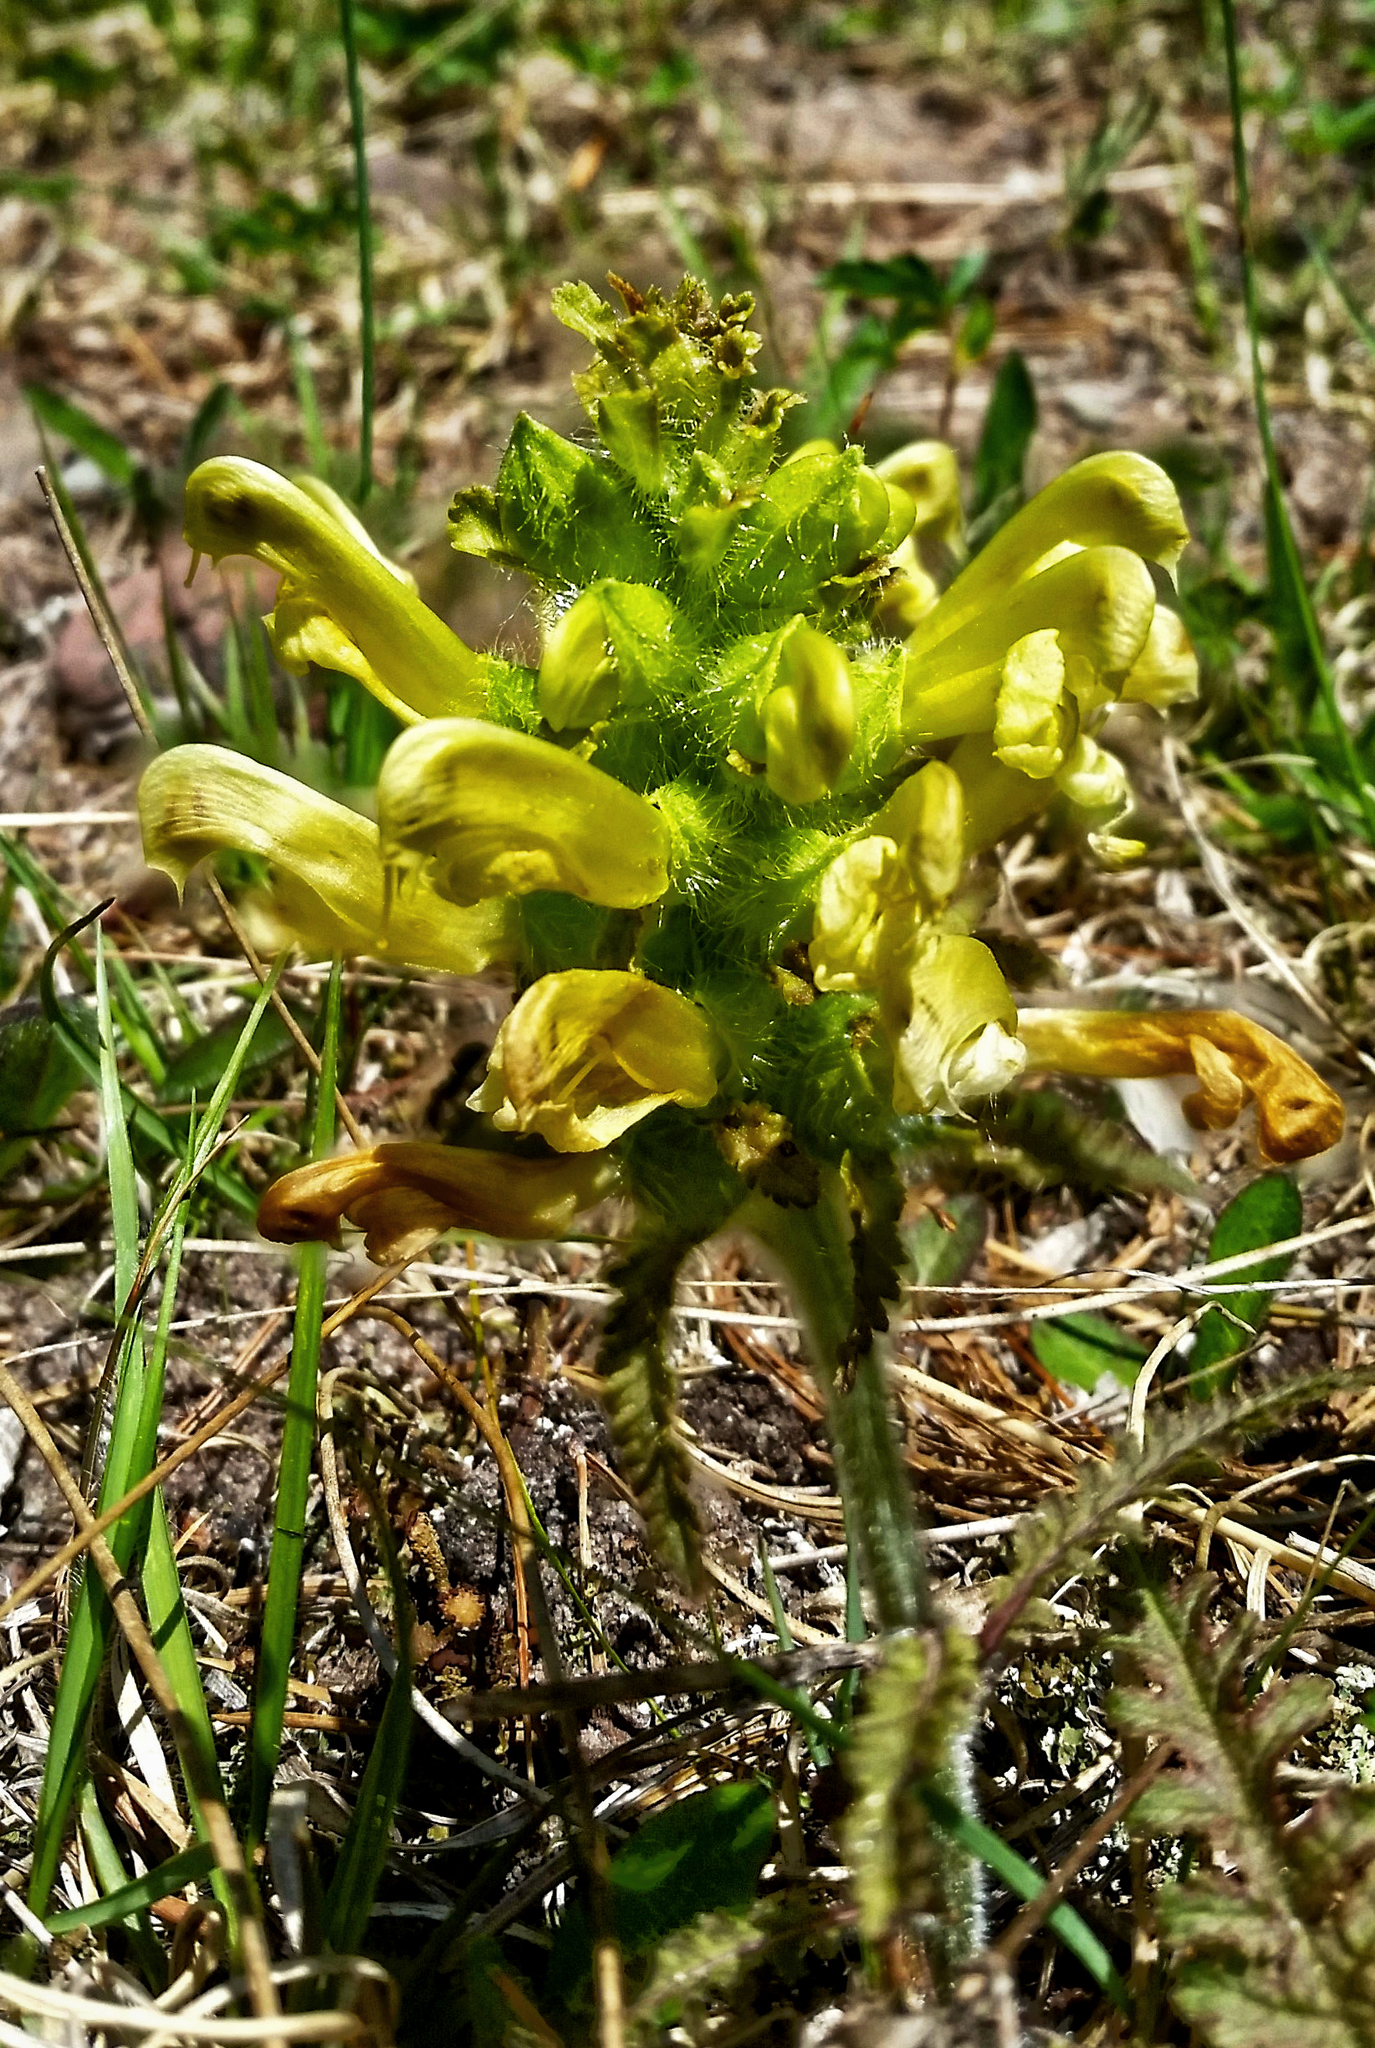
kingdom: Plantae
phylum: Tracheophyta
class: Magnoliopsida
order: Lamiales
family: Orobanchaceae
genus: Pedicularis
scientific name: Pedicularis canadensis
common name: Early lousewort
